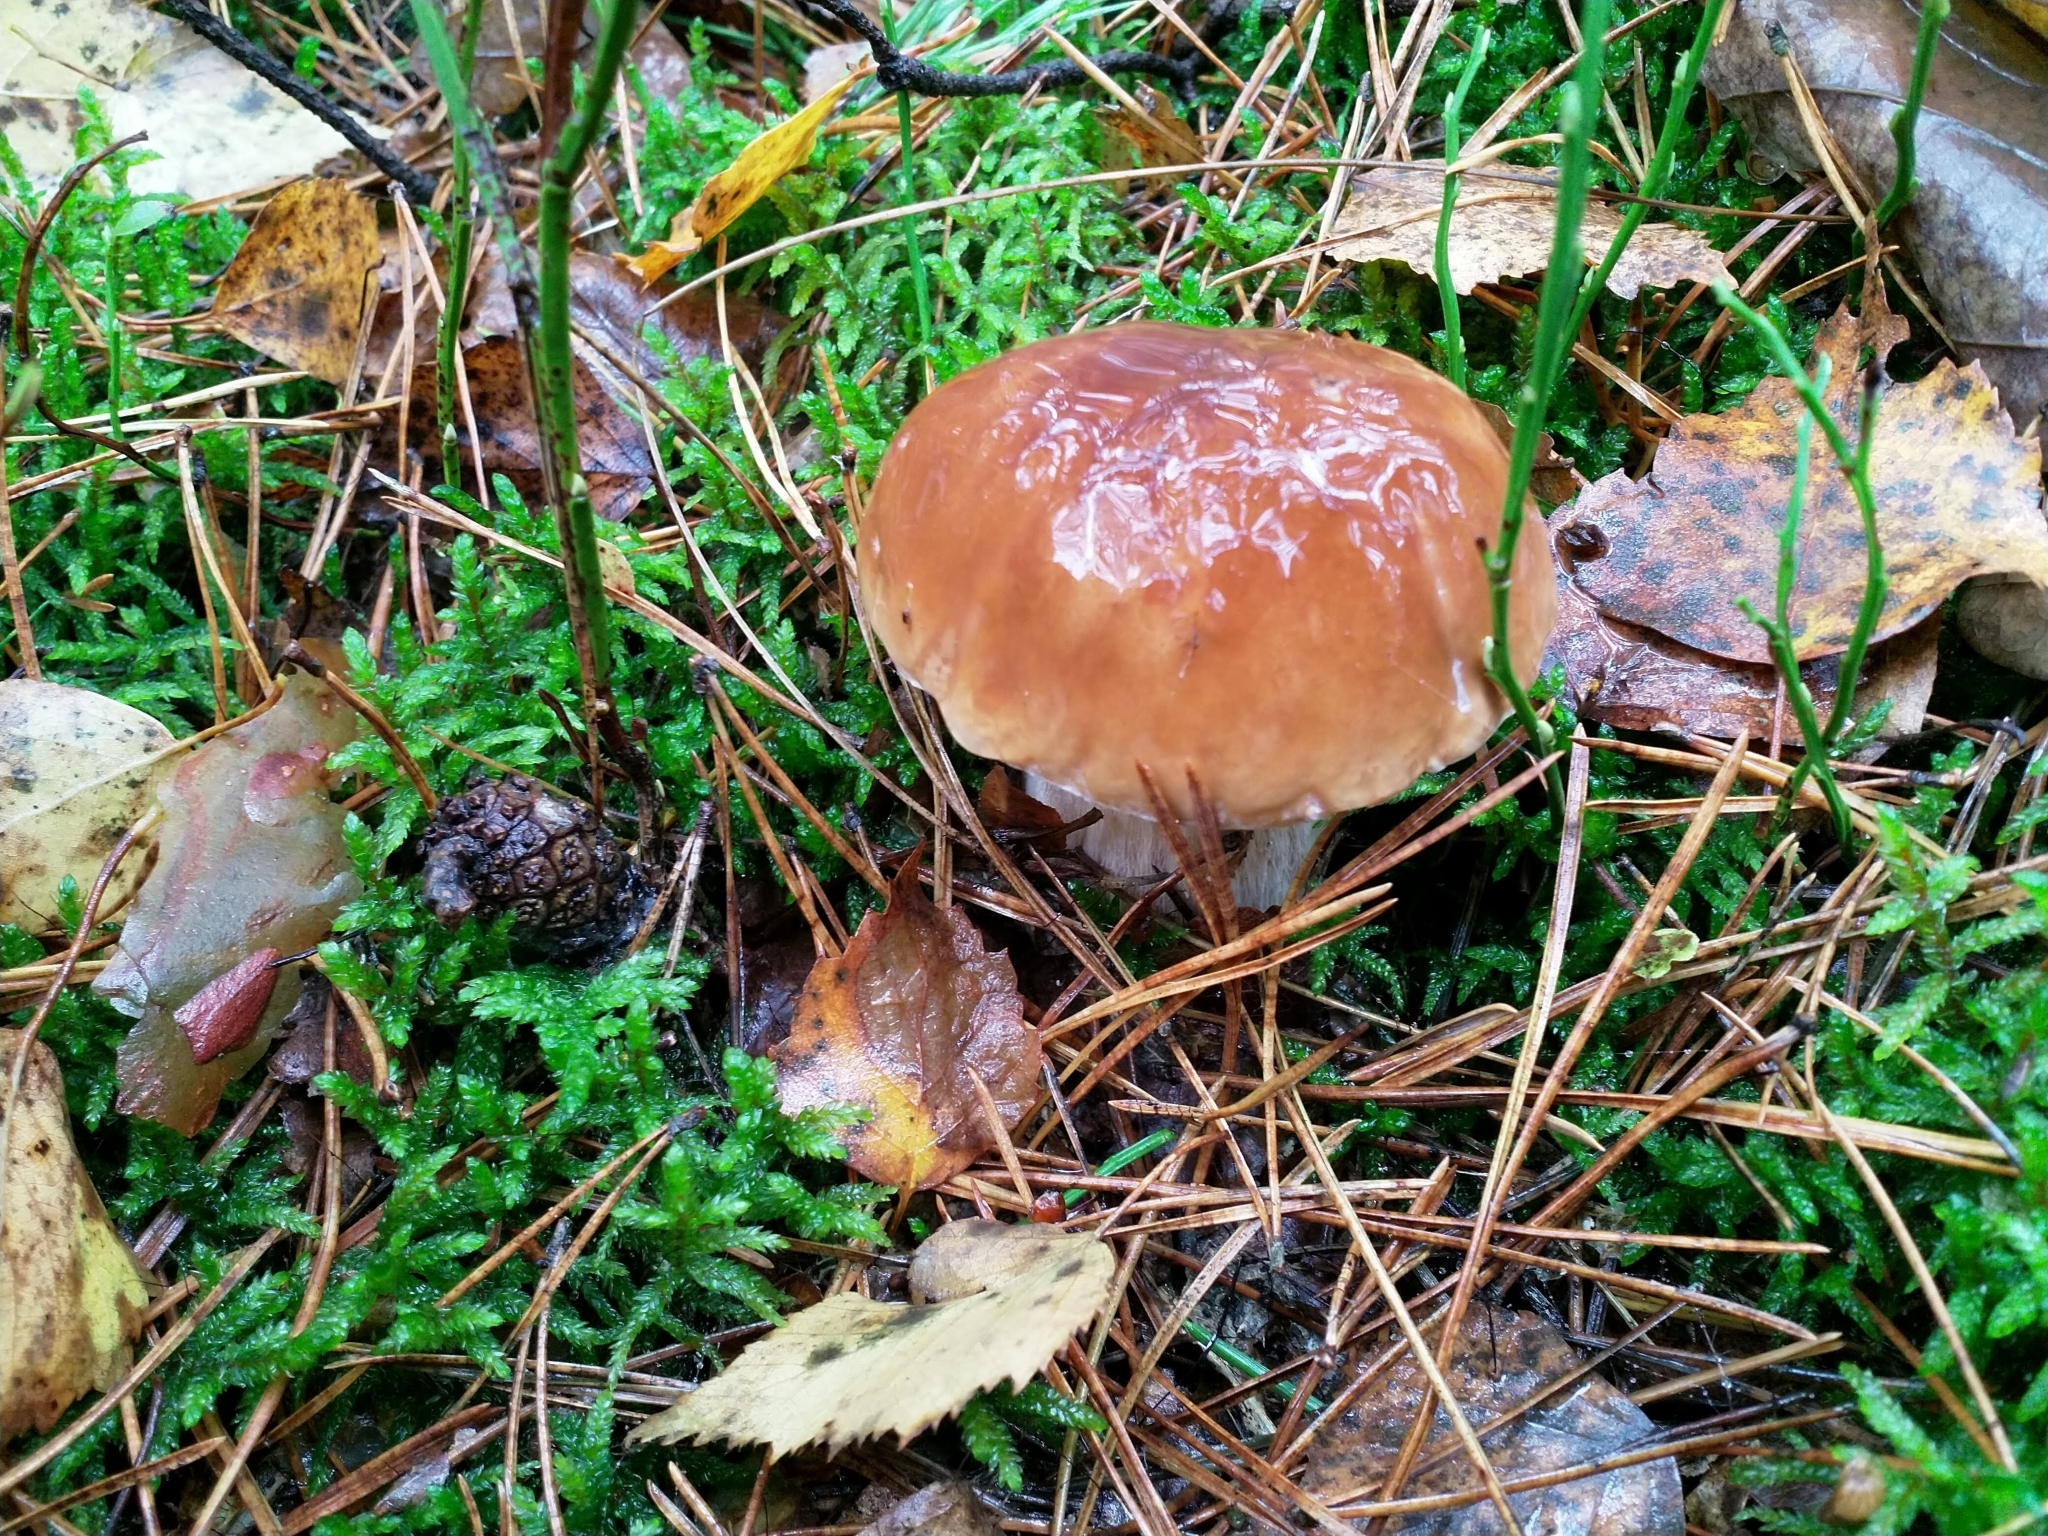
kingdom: Fungi
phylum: Basidiomycota
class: Agaricomycetes
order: Boletales
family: Boletaceae
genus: Boletus
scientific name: Boletus edulis
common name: Cep
